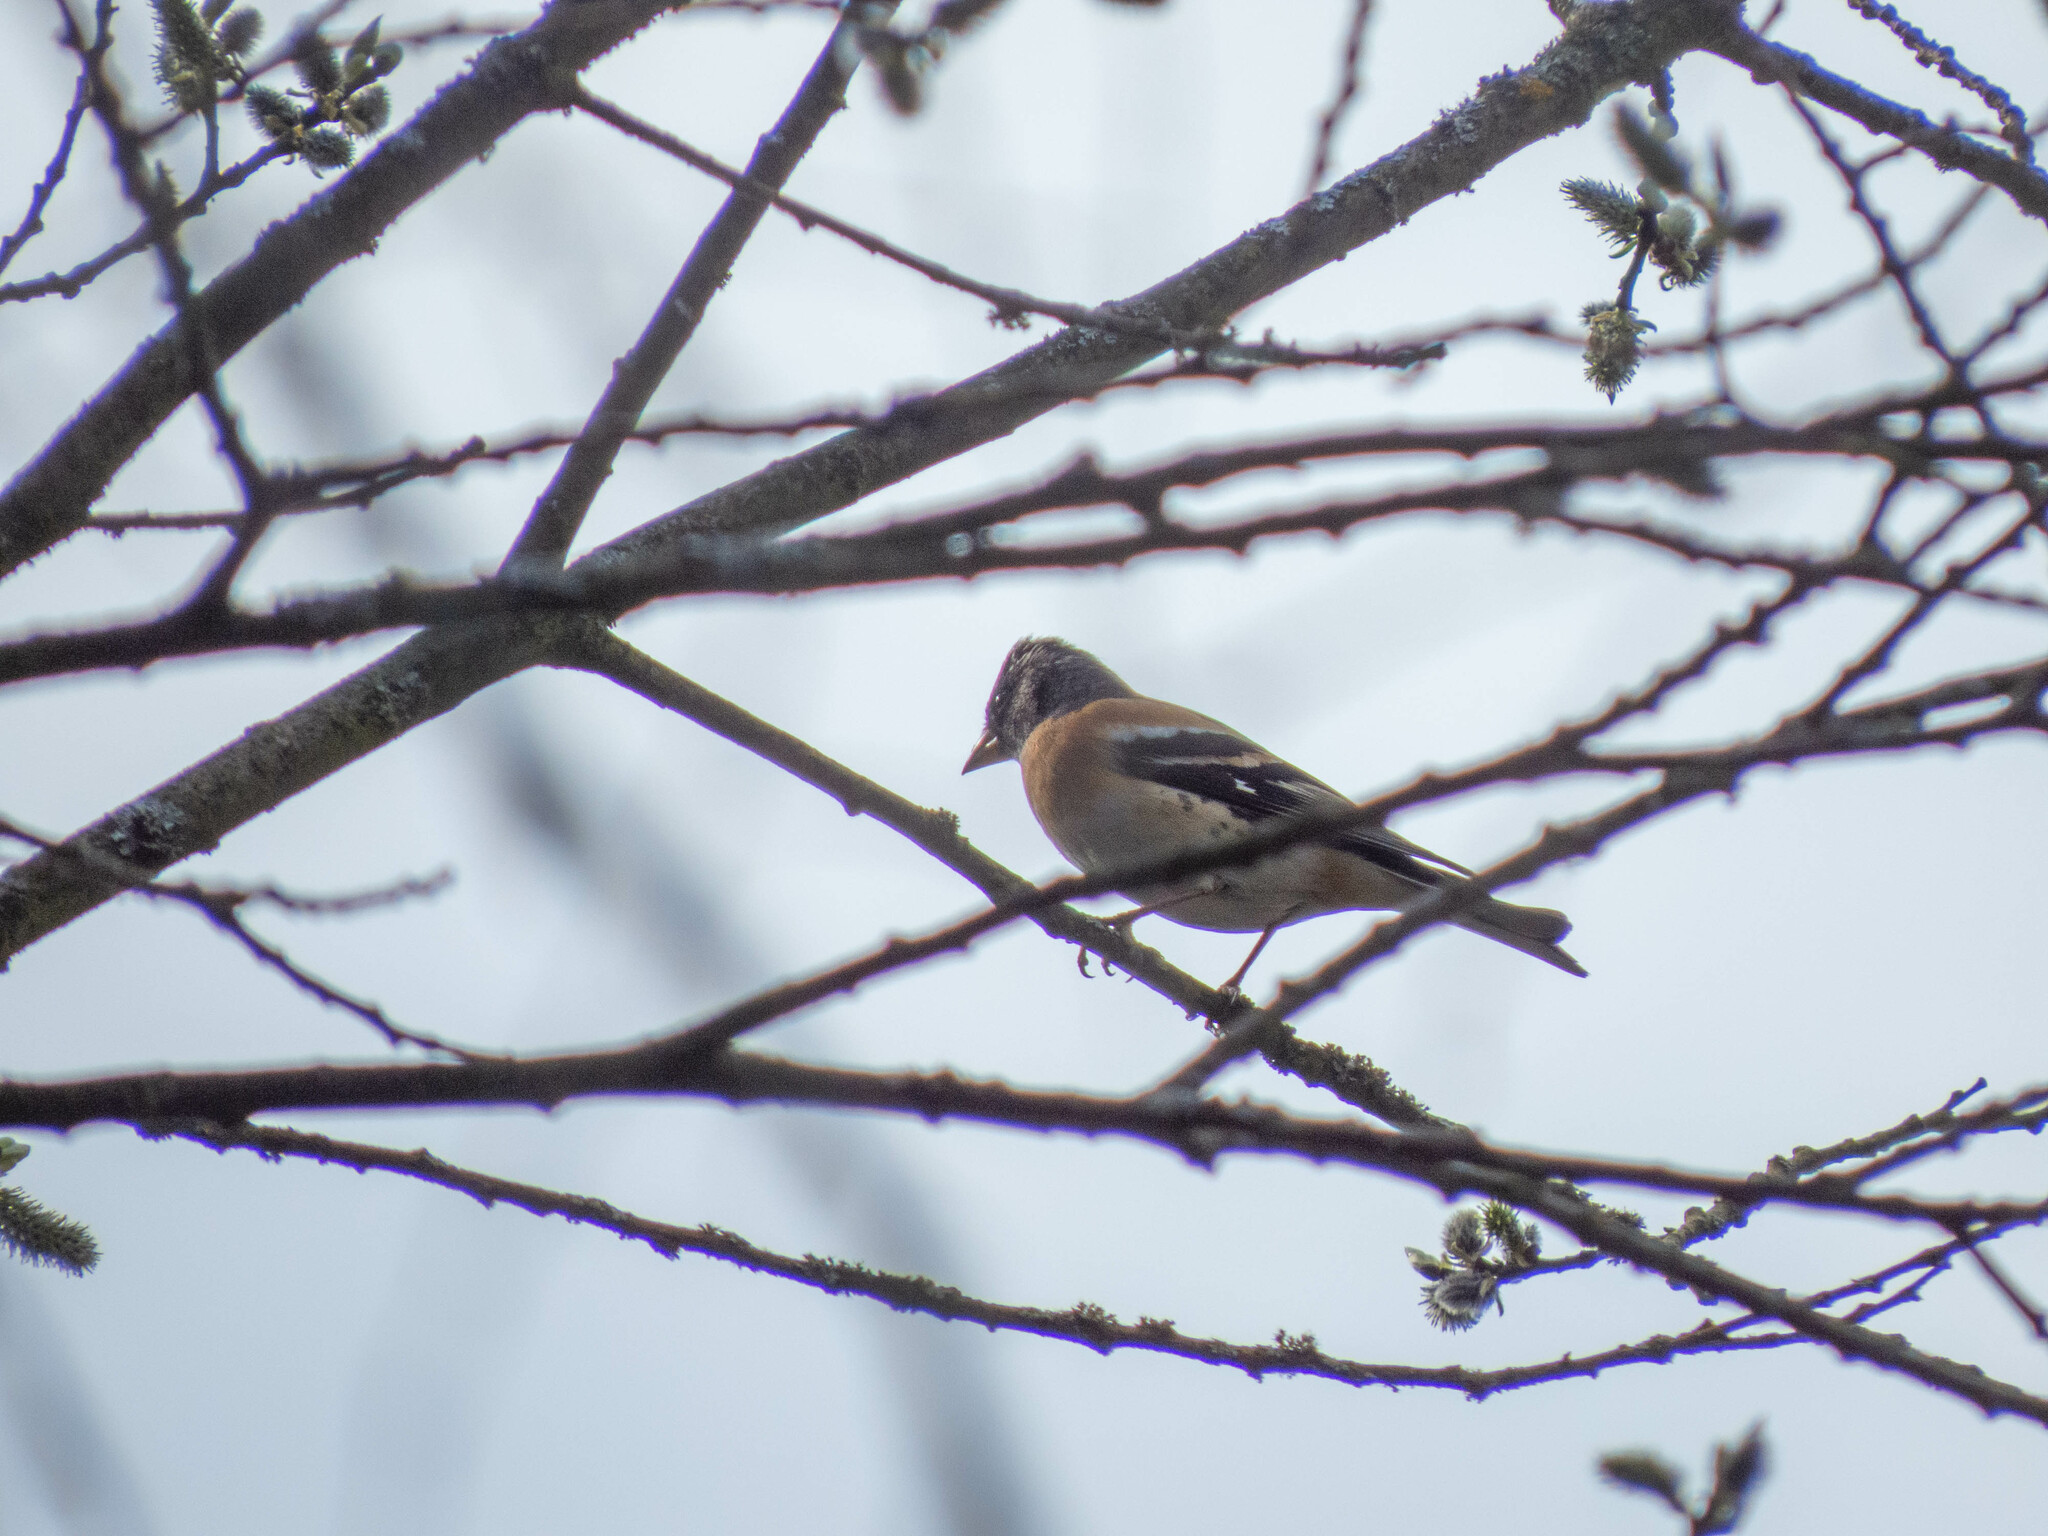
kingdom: Animalia
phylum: Chordata
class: Aves
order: Passeriformes
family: Fringillidae
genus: Fringilla
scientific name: Fringilla montifringilla
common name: Brambling
